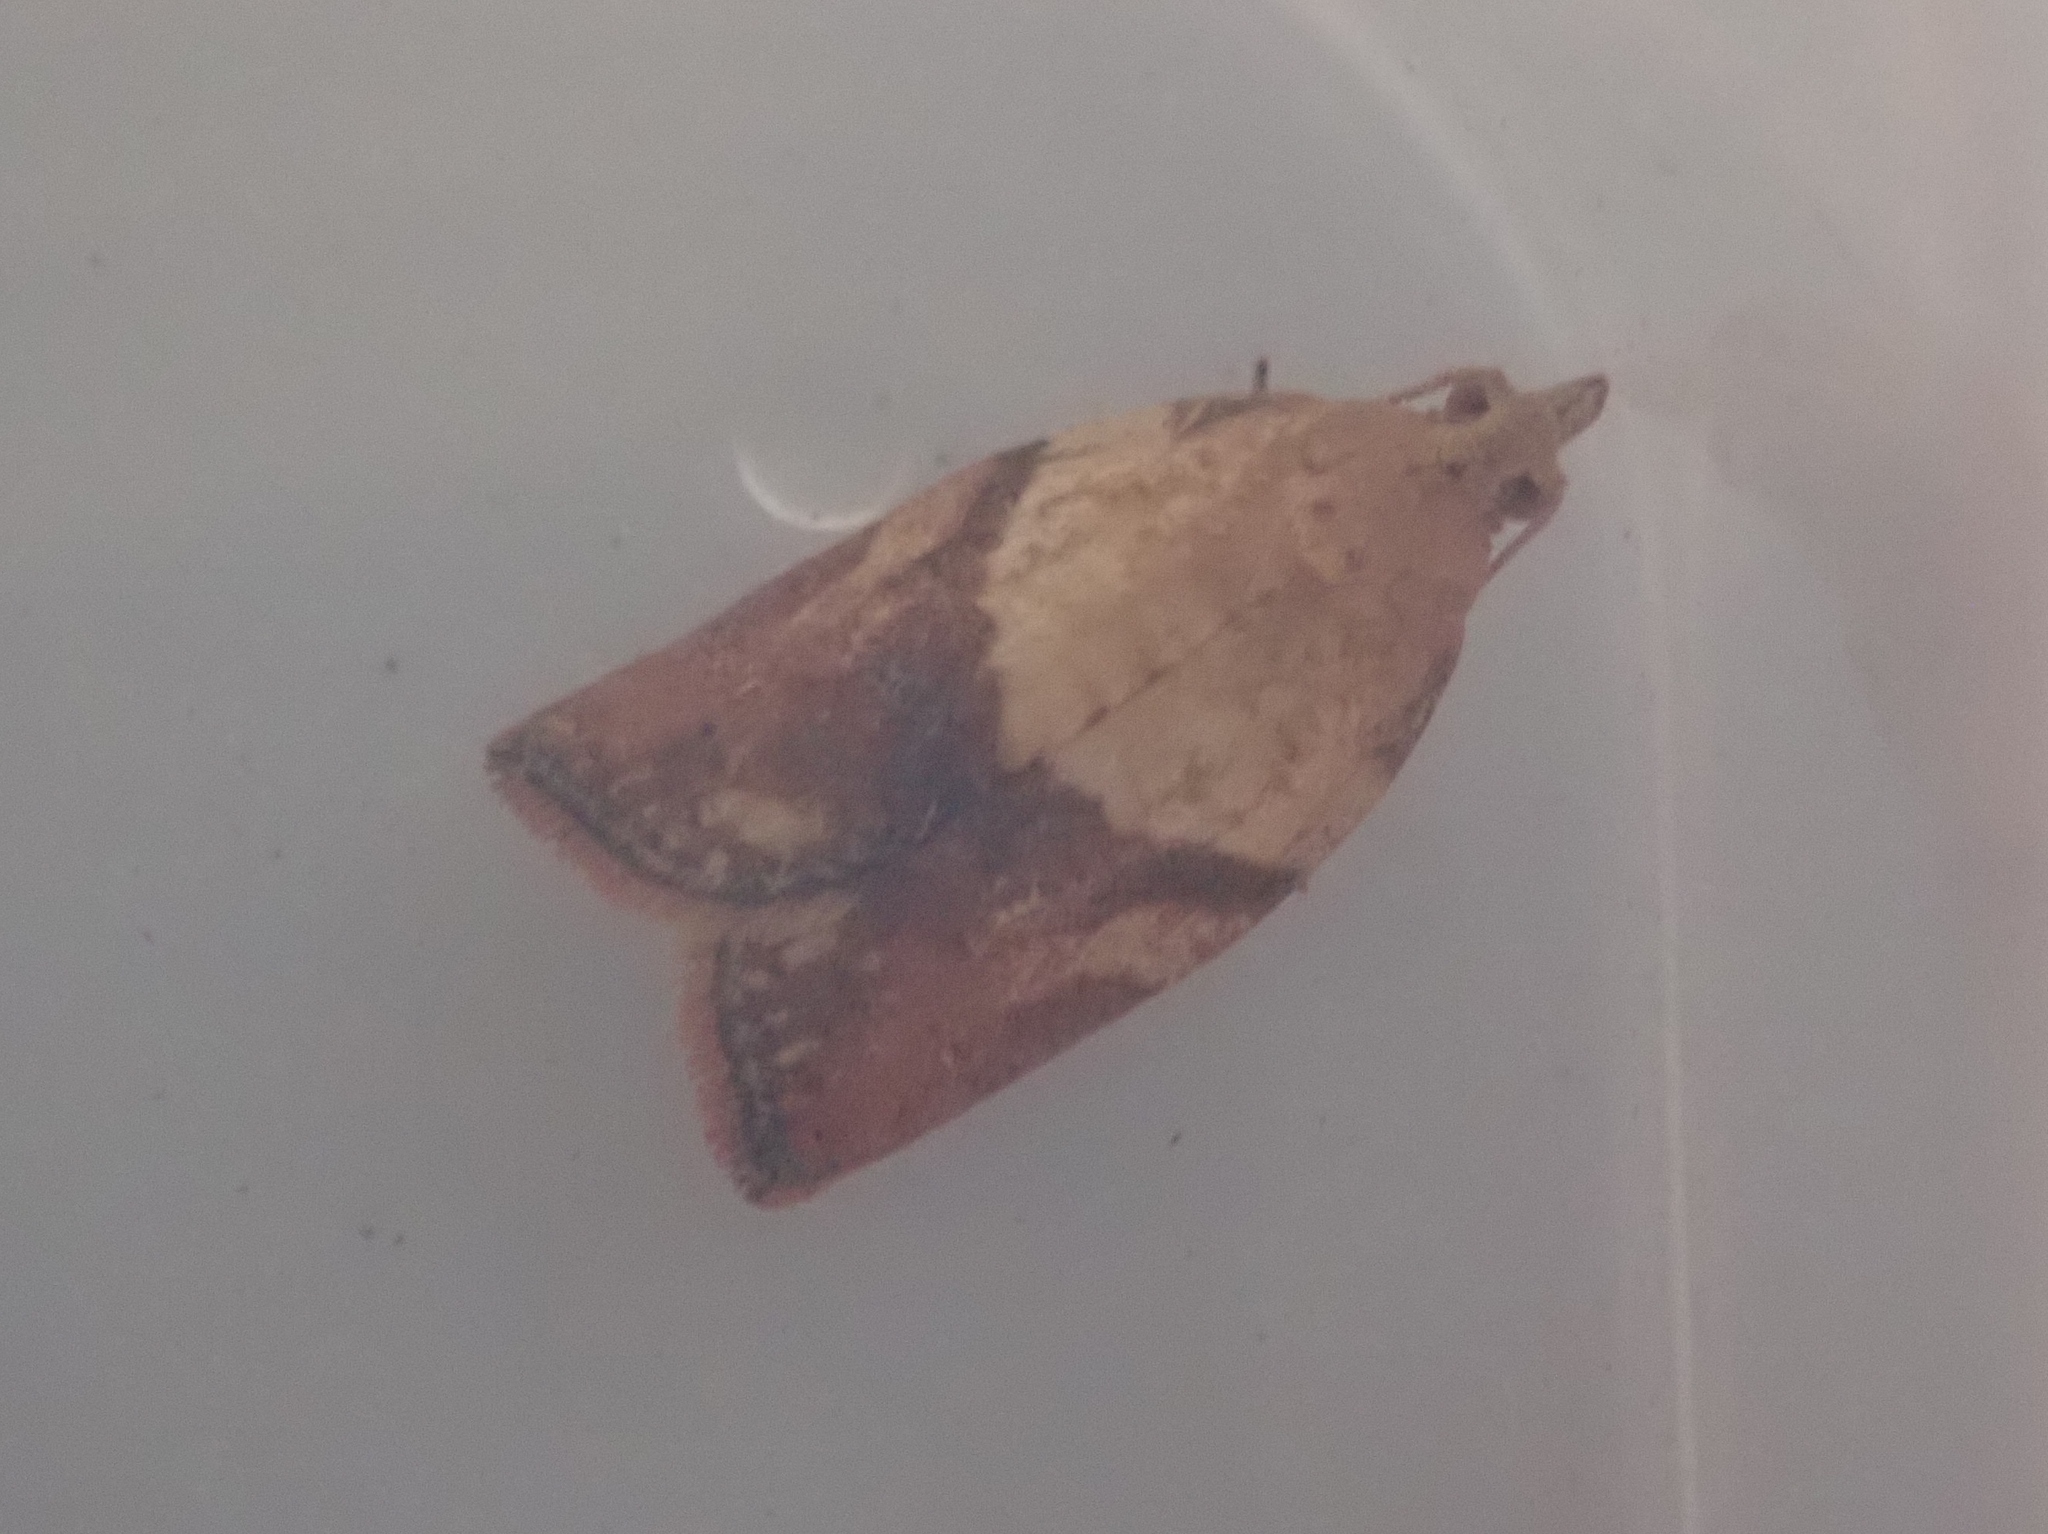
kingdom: Animalia
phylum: Arthropoda
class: Insecta
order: Lepidoptera
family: Tortricidae
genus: Epiphyas
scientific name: Epiphyas postvittana
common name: Light brown apple moth
